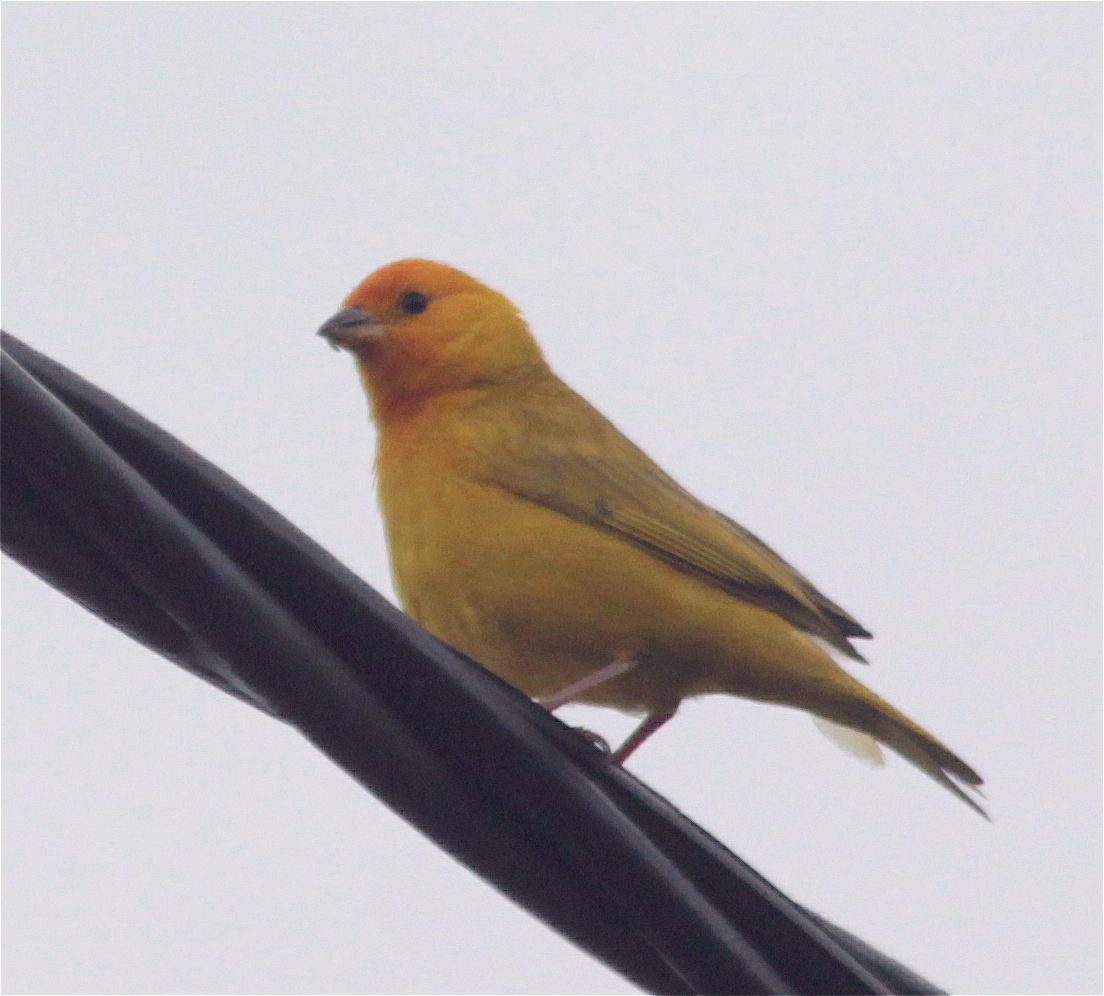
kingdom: Animalia
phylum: Chordata
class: Aves
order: Passeriformes
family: Thraupidae
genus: Sicalis
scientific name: Sicalis flaveola
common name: Saffron finch
